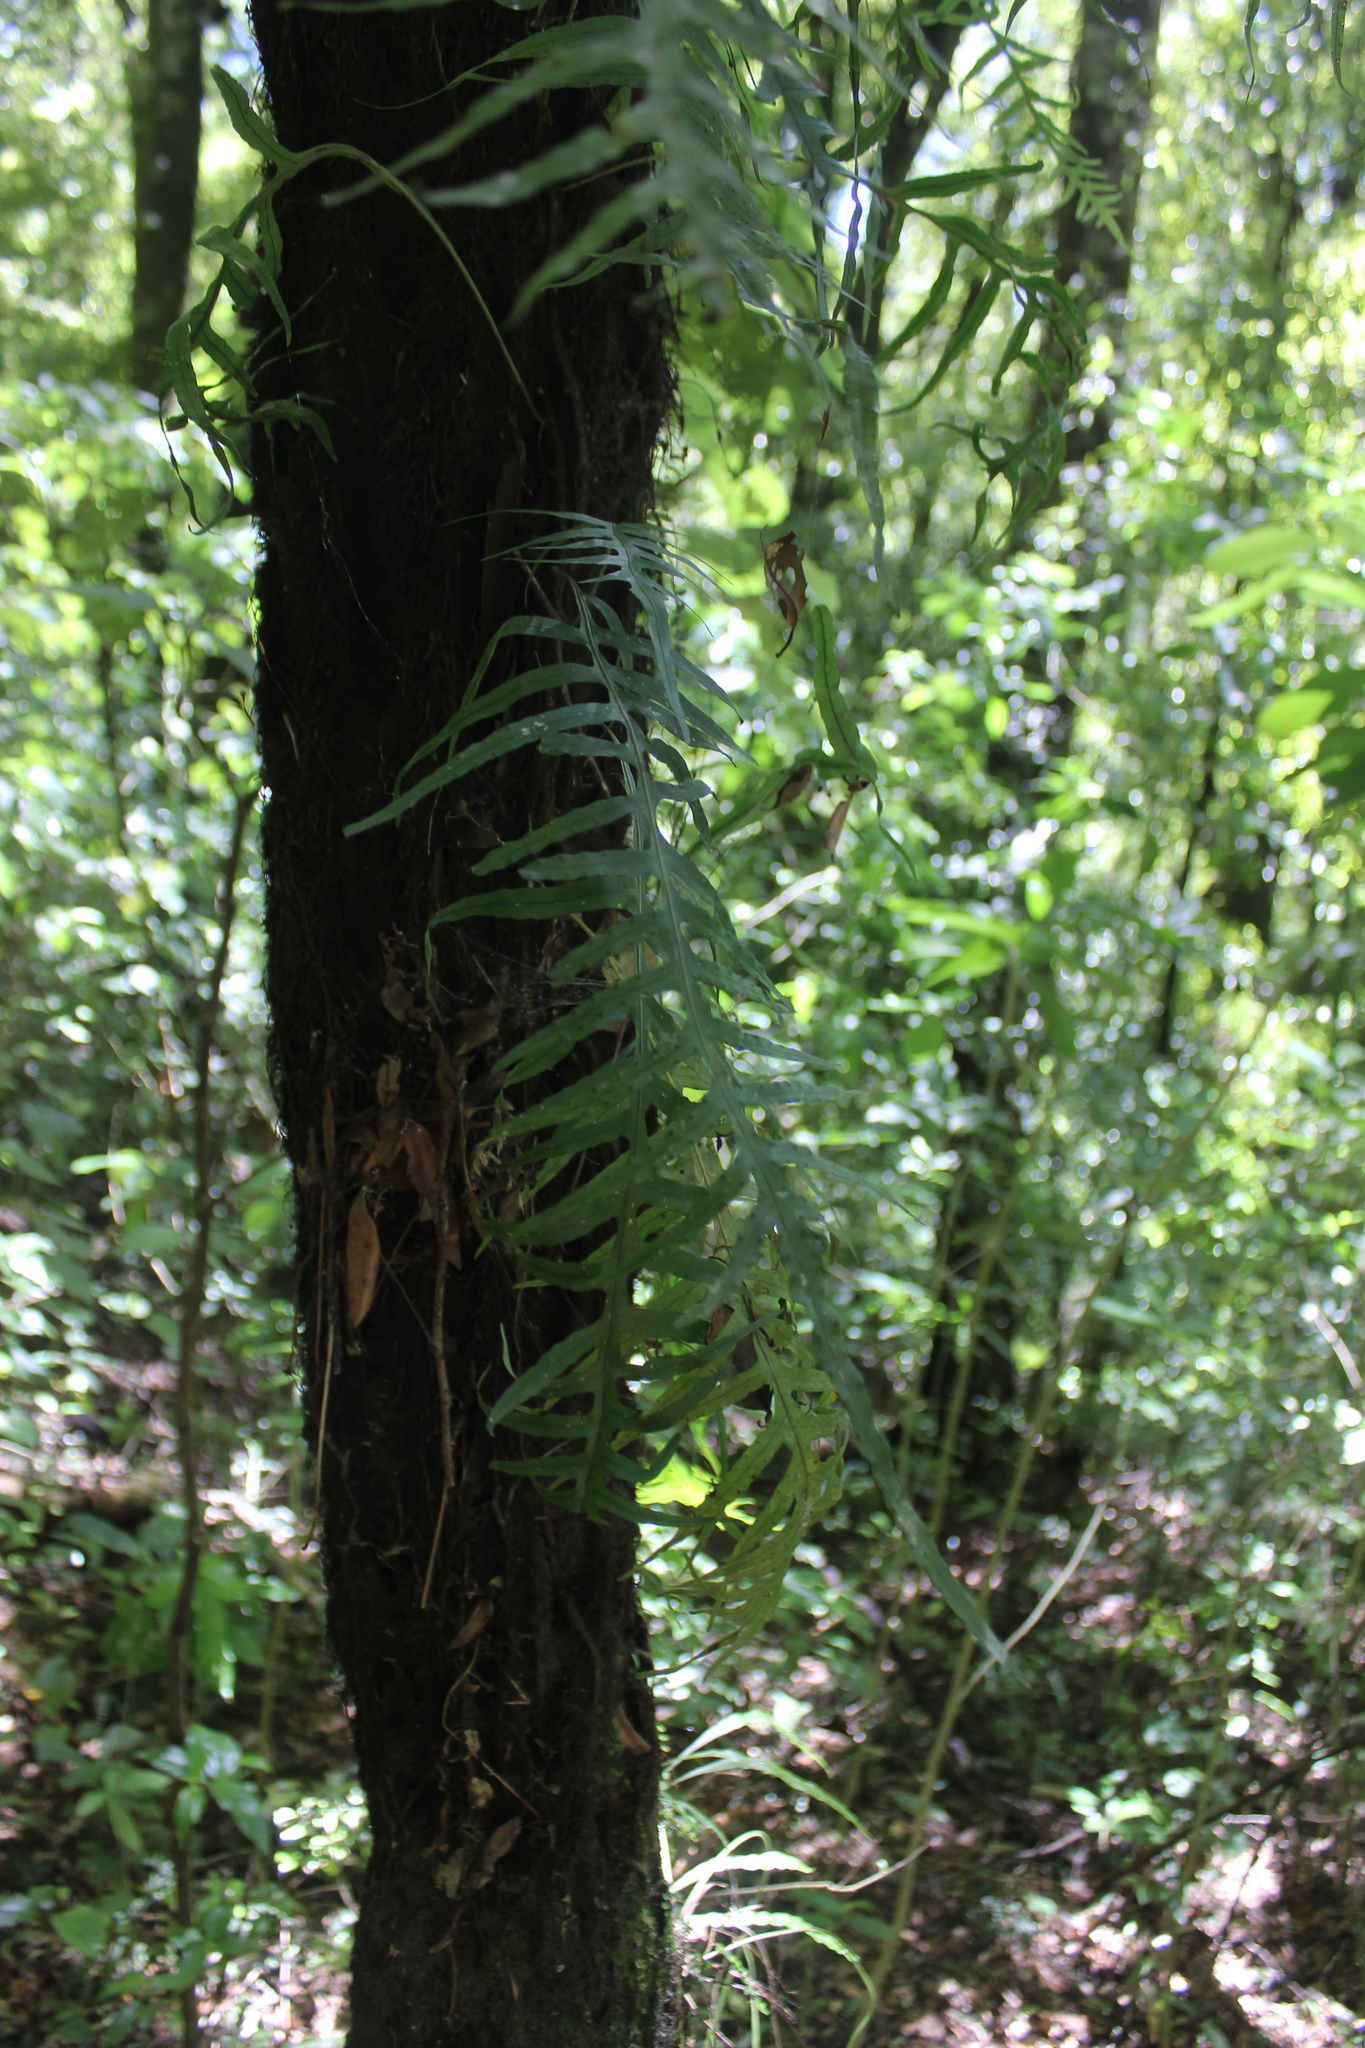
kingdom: Plantae
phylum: Tracheophyta
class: Polypodiopsida
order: Polypodiales
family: Polypodiaceae
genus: Lecanopteris
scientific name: Lecanopteris scandens
